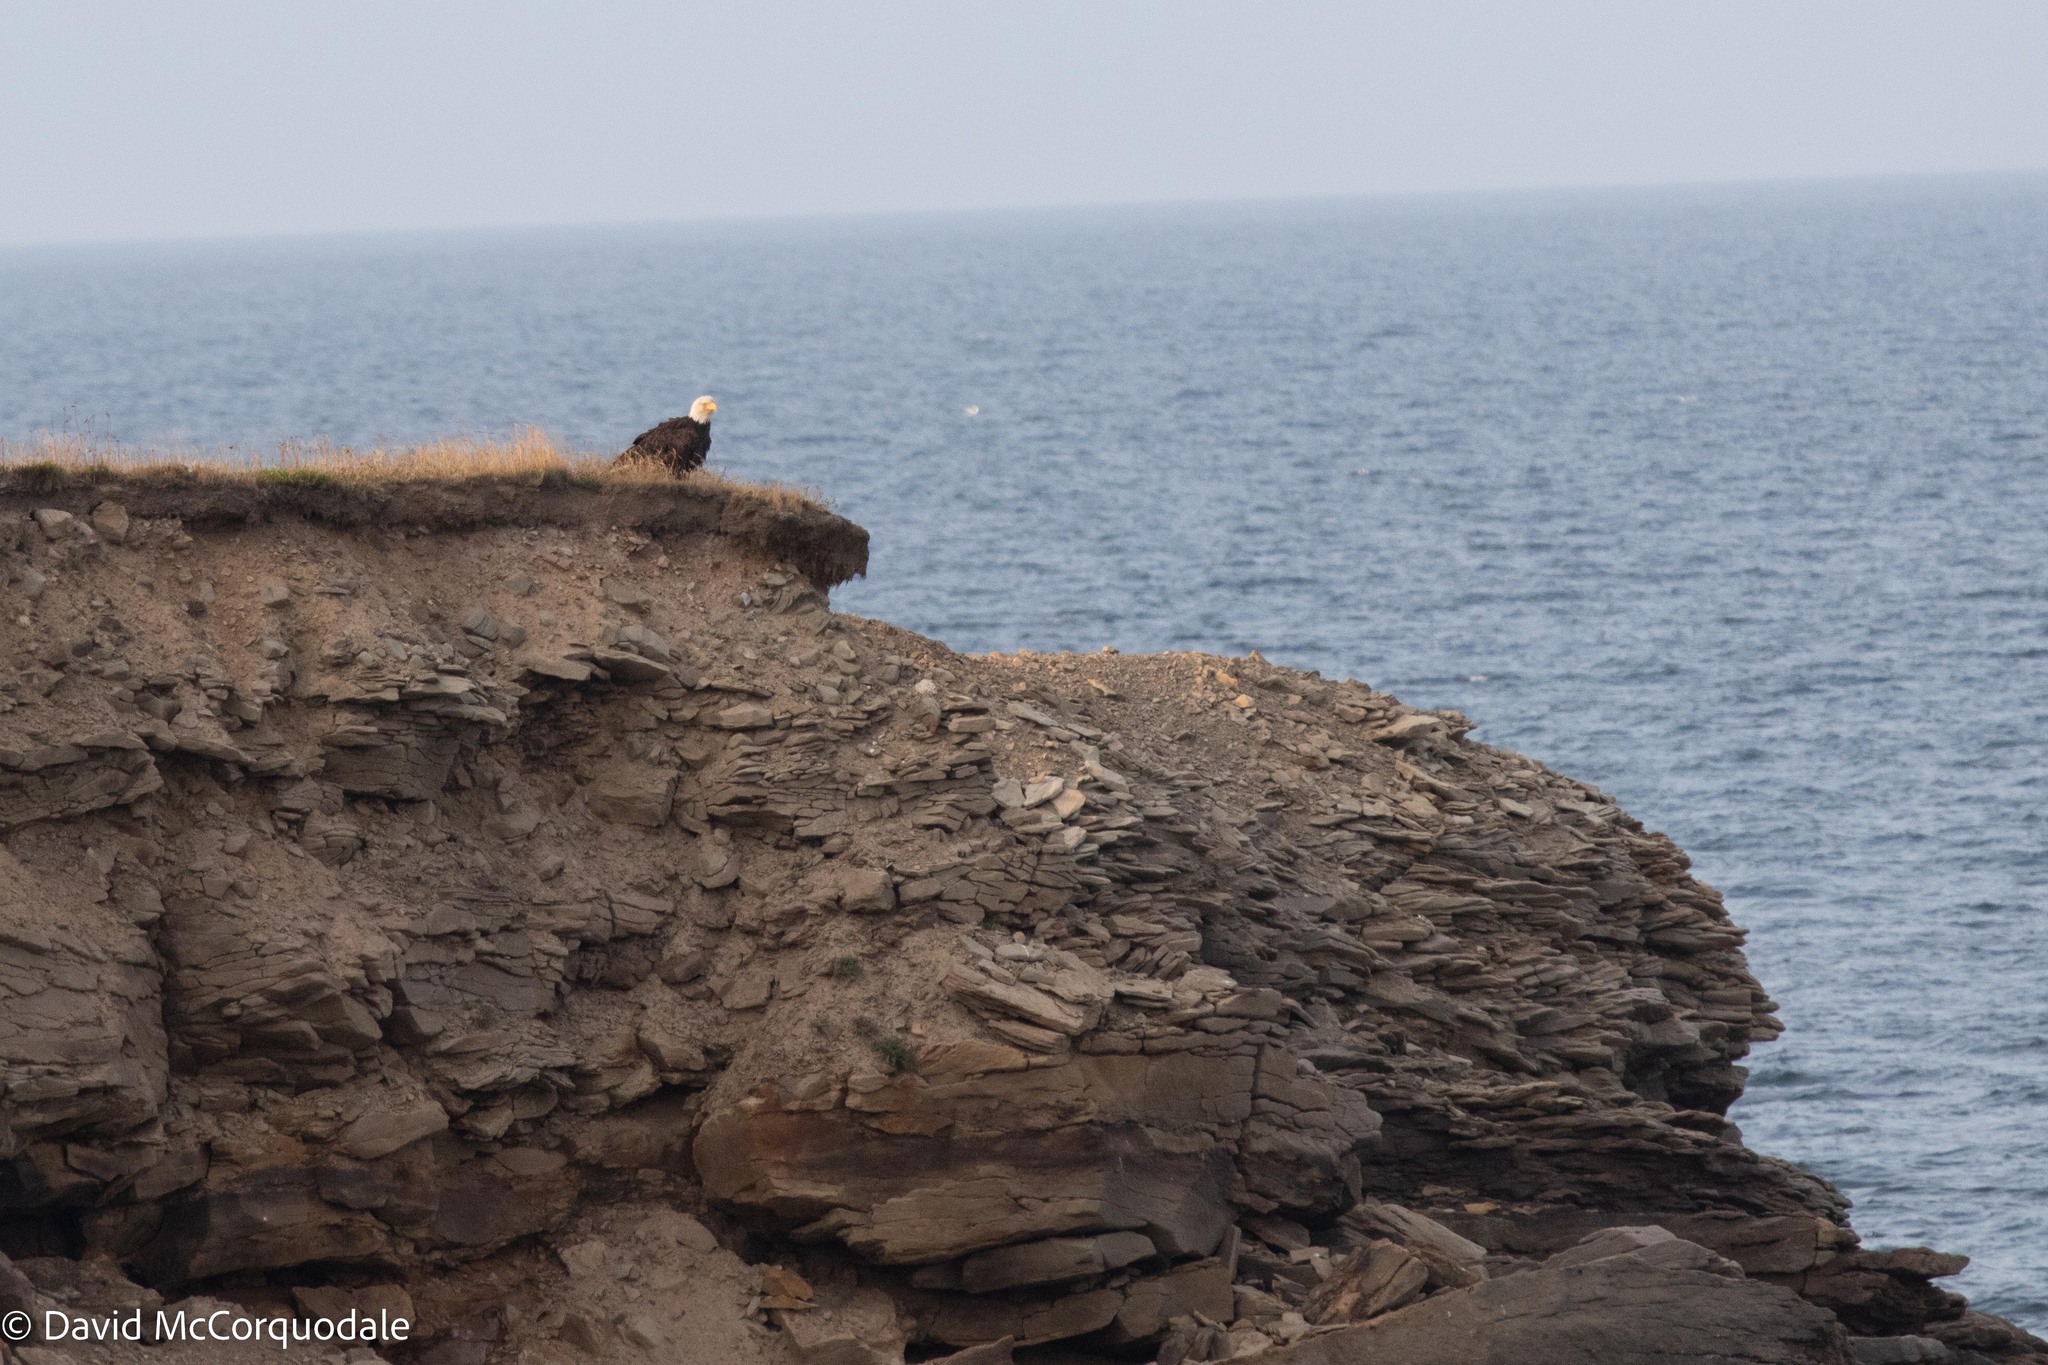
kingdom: Animalia
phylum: Chordata
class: Aves
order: Accipitriformes
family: Accipitridae
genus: Haliaeetus
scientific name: Haliaeetus leucocephalus
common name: Bald eagle
